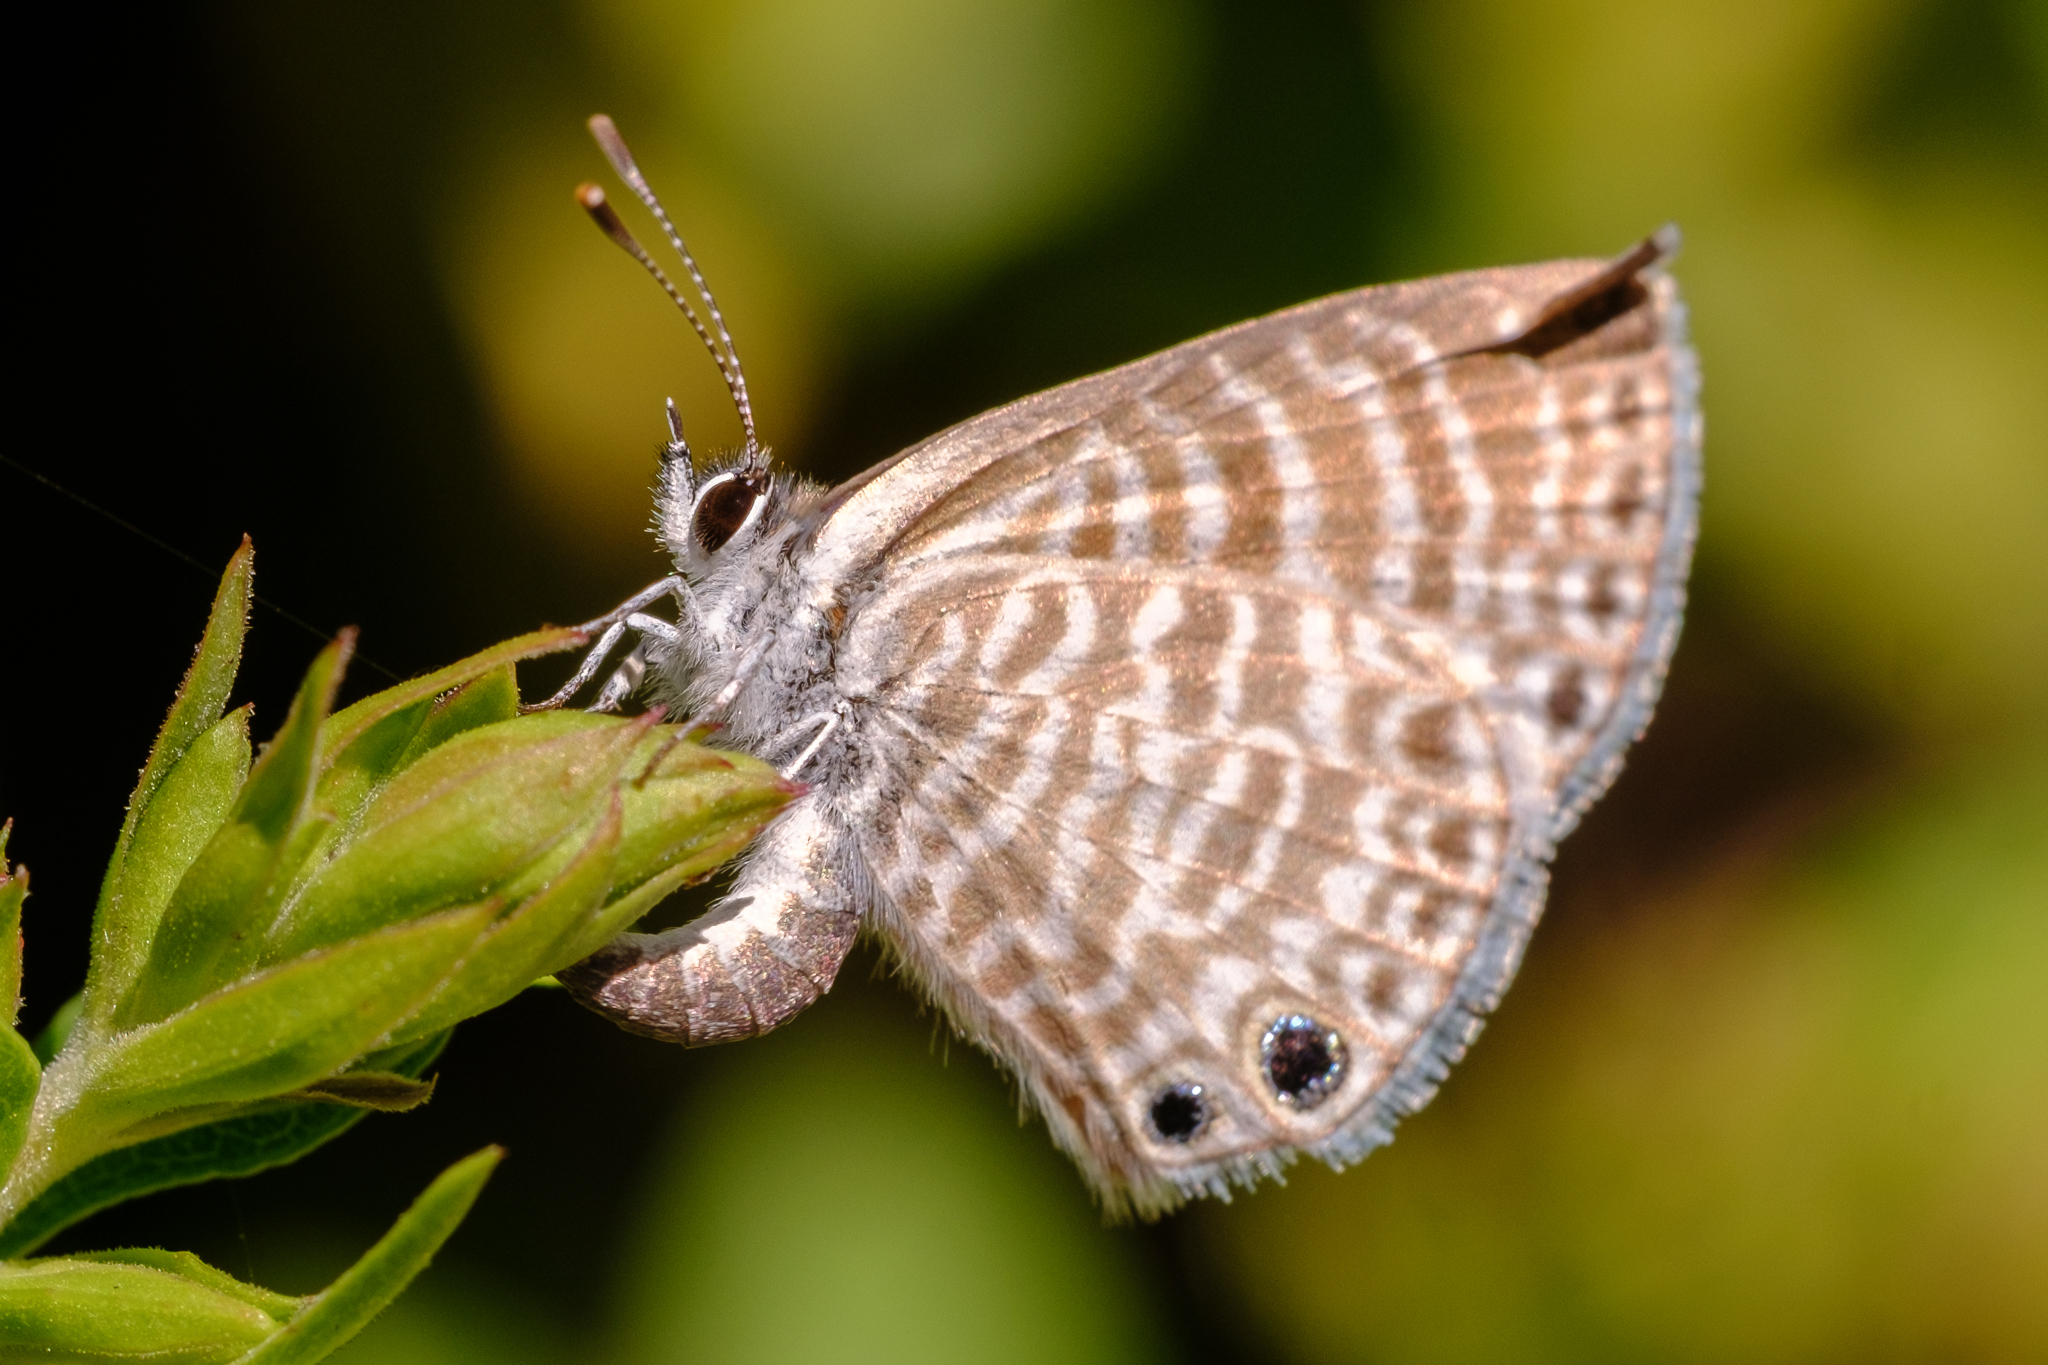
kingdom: Animalia
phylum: Arthropoda
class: Insecta
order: Lepidoptera
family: Lycaenidae
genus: Leptotes
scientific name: Leptotes marina
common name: Marine blue
